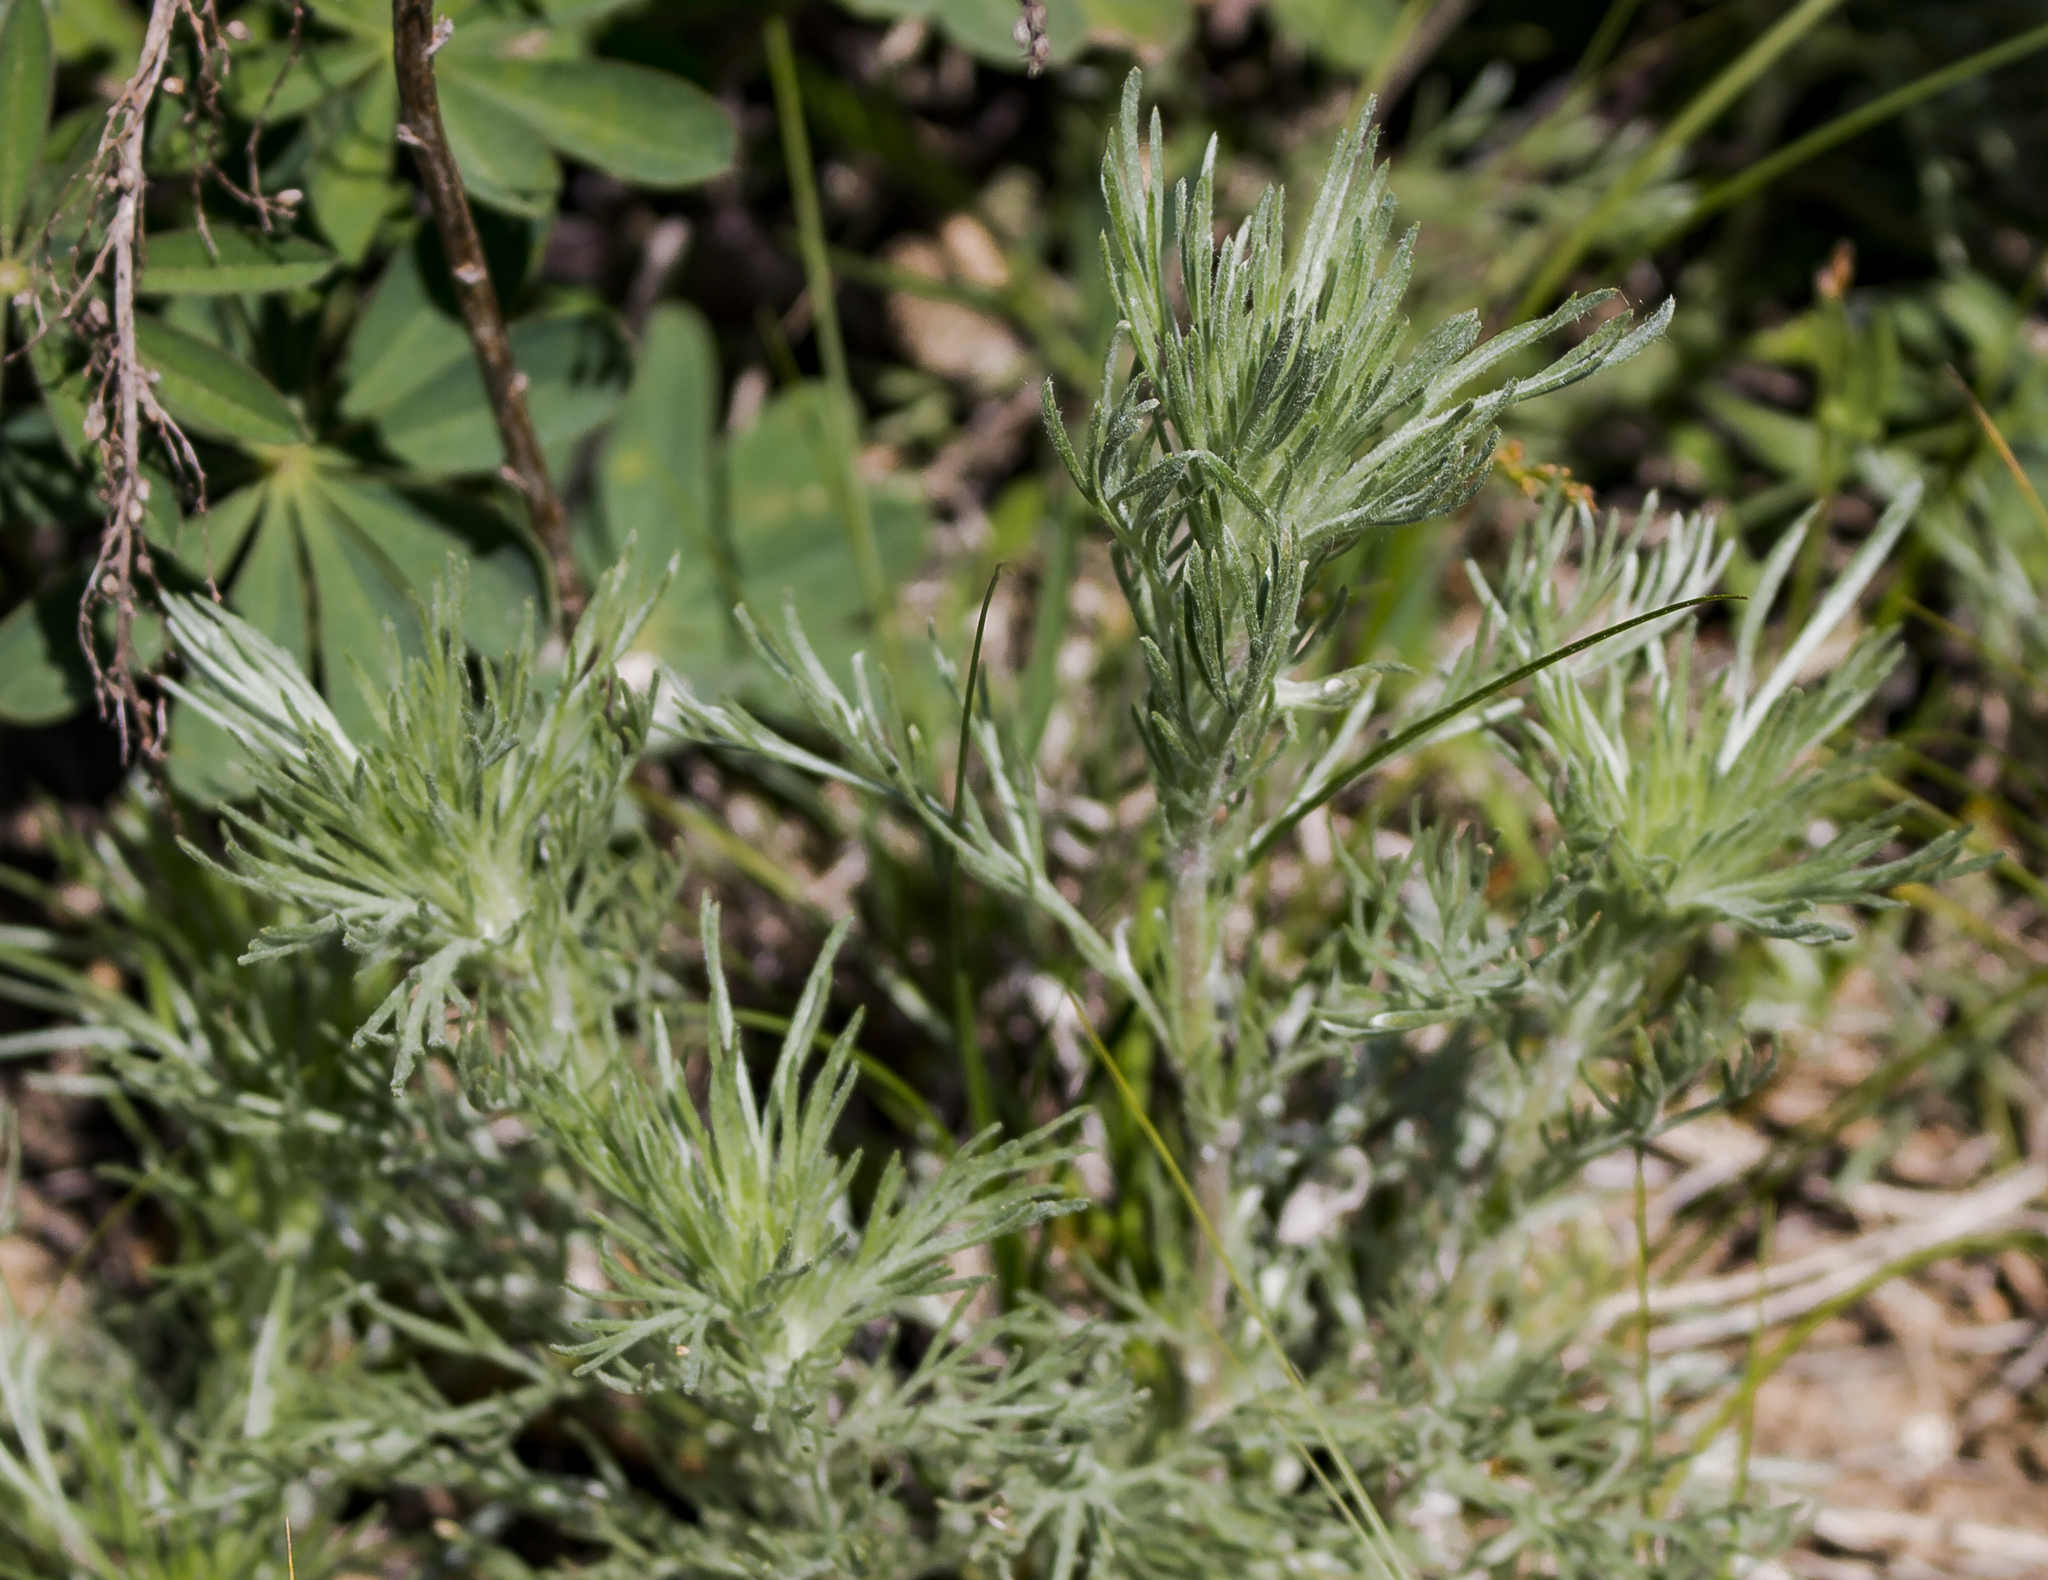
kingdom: Plantae
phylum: Tracheophyta
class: Magnoliopsida
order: Asterales
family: Asteraceae
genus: Artemisia
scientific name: Artemisia campestris
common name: Field wormwood
